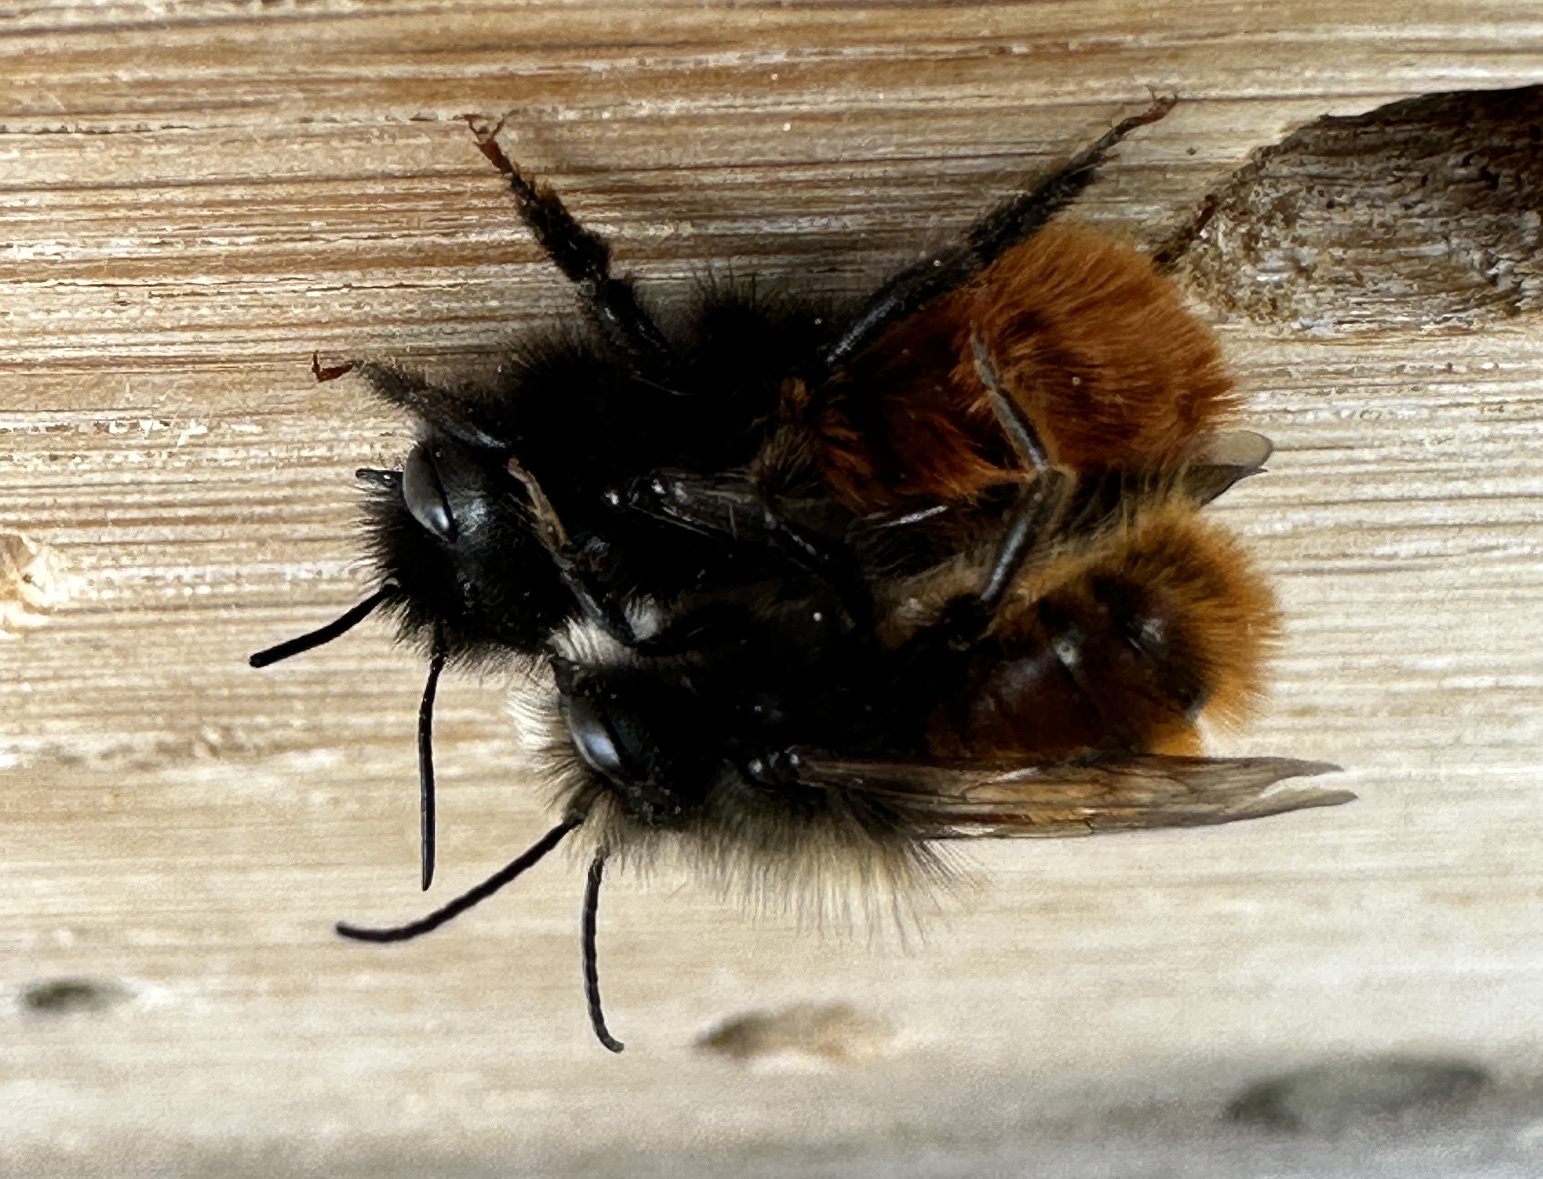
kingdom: Animalia
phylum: Arthropoda
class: Insecta
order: Hymenoptera
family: Megachilidae
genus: Osmia
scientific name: Osmia cornuta
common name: Mason bee
